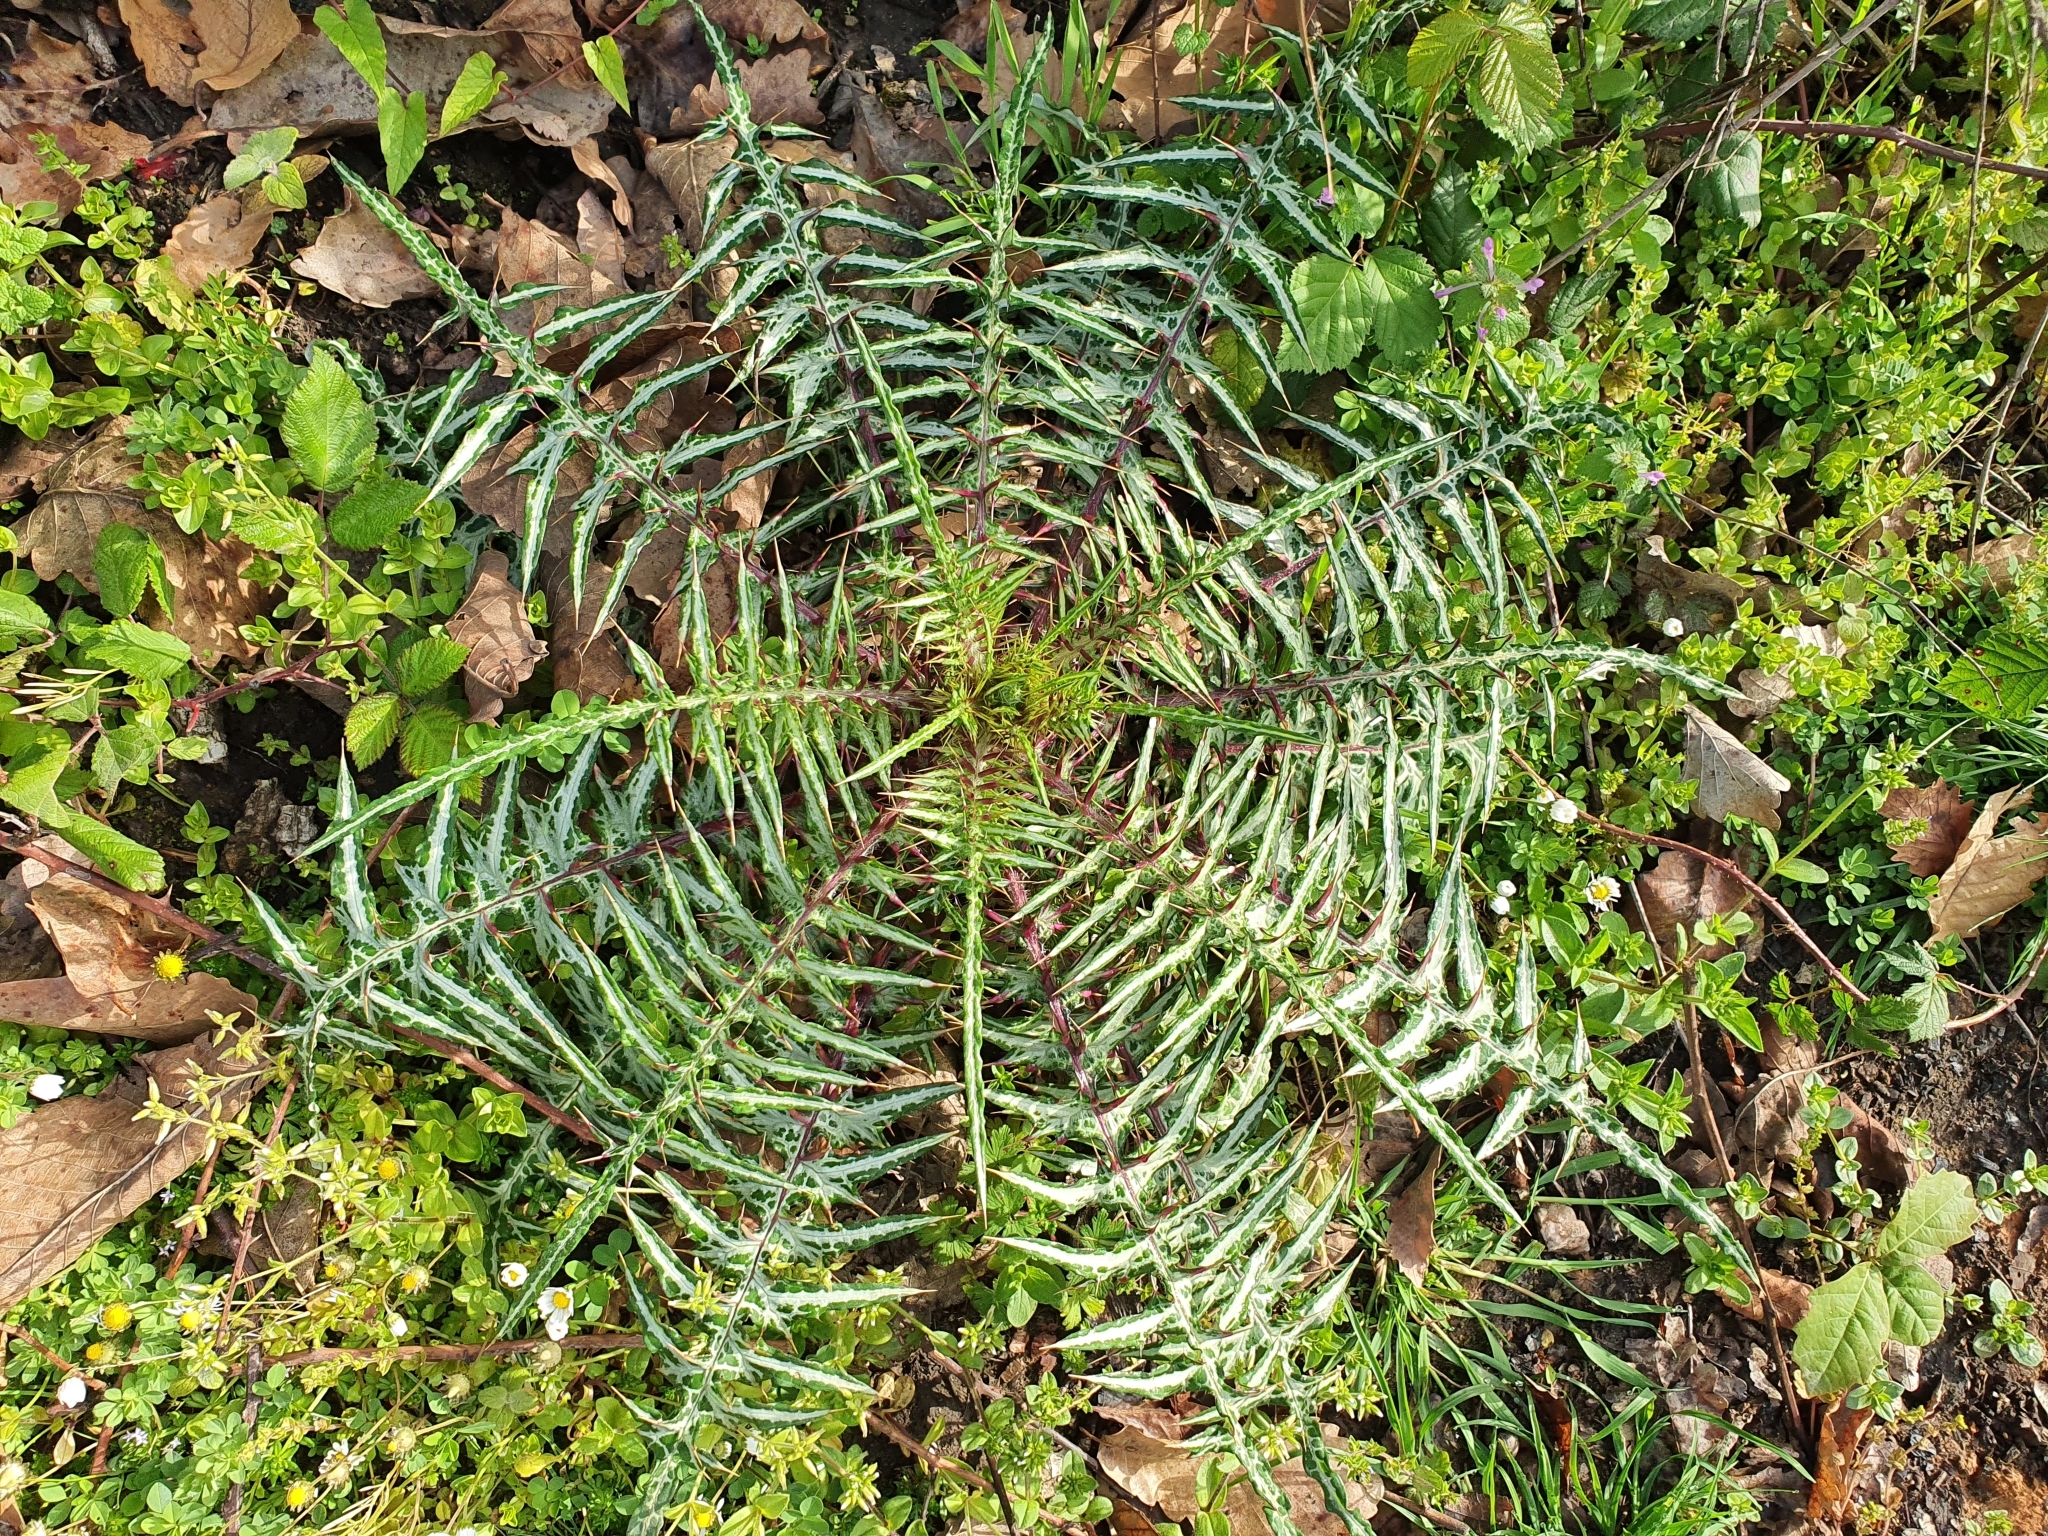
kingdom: Plantae
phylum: Tracheophyta
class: Magnoliopsida
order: Asterales
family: Asteraceae
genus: Galactites
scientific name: Galactites mutabilis
